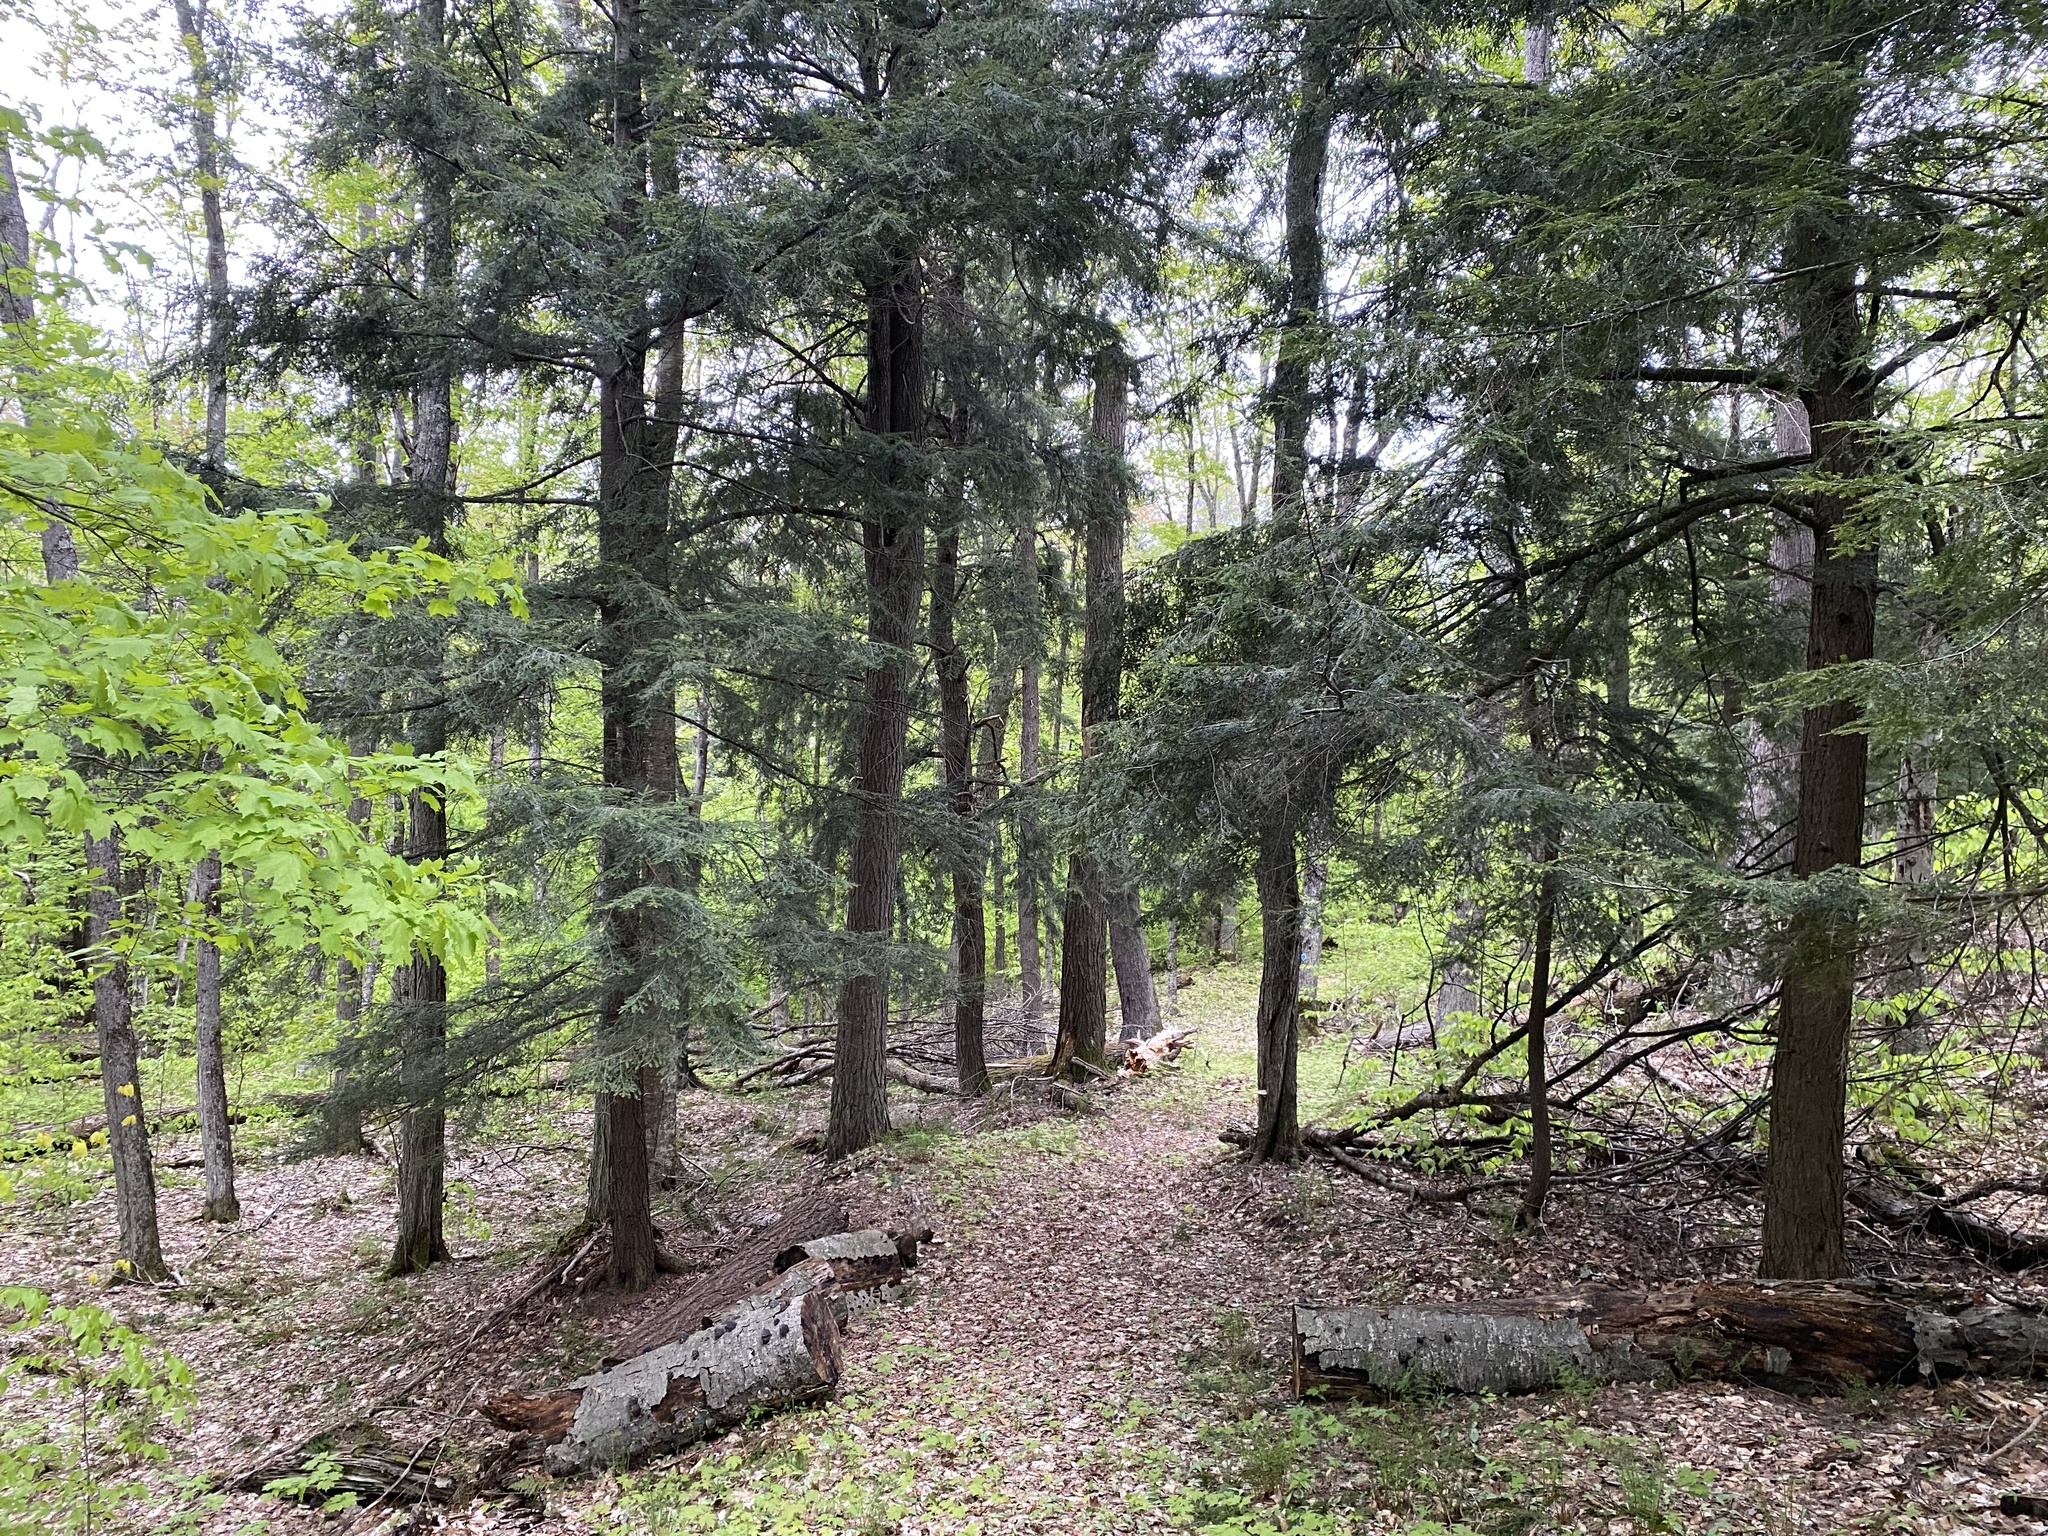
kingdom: Plantae
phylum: Tracheophyta
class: Pinopsida
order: Pinales
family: Pinaceae
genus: Tsuga
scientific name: Tsuga canadensis
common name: Eastern hemlock
